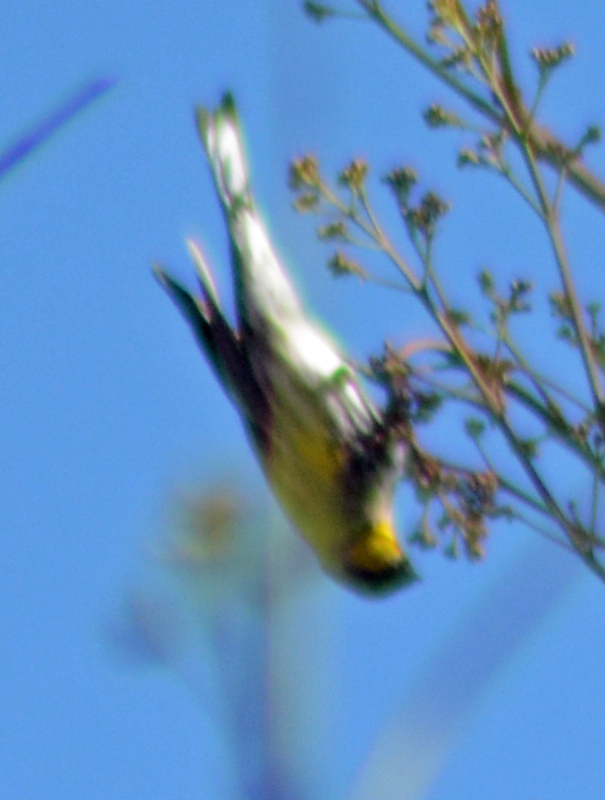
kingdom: Animalia
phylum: Chordata
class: Aves
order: Passeriformes
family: Parulidae
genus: Setophaga
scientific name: Setophaga coronata
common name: Myrtle warbler
